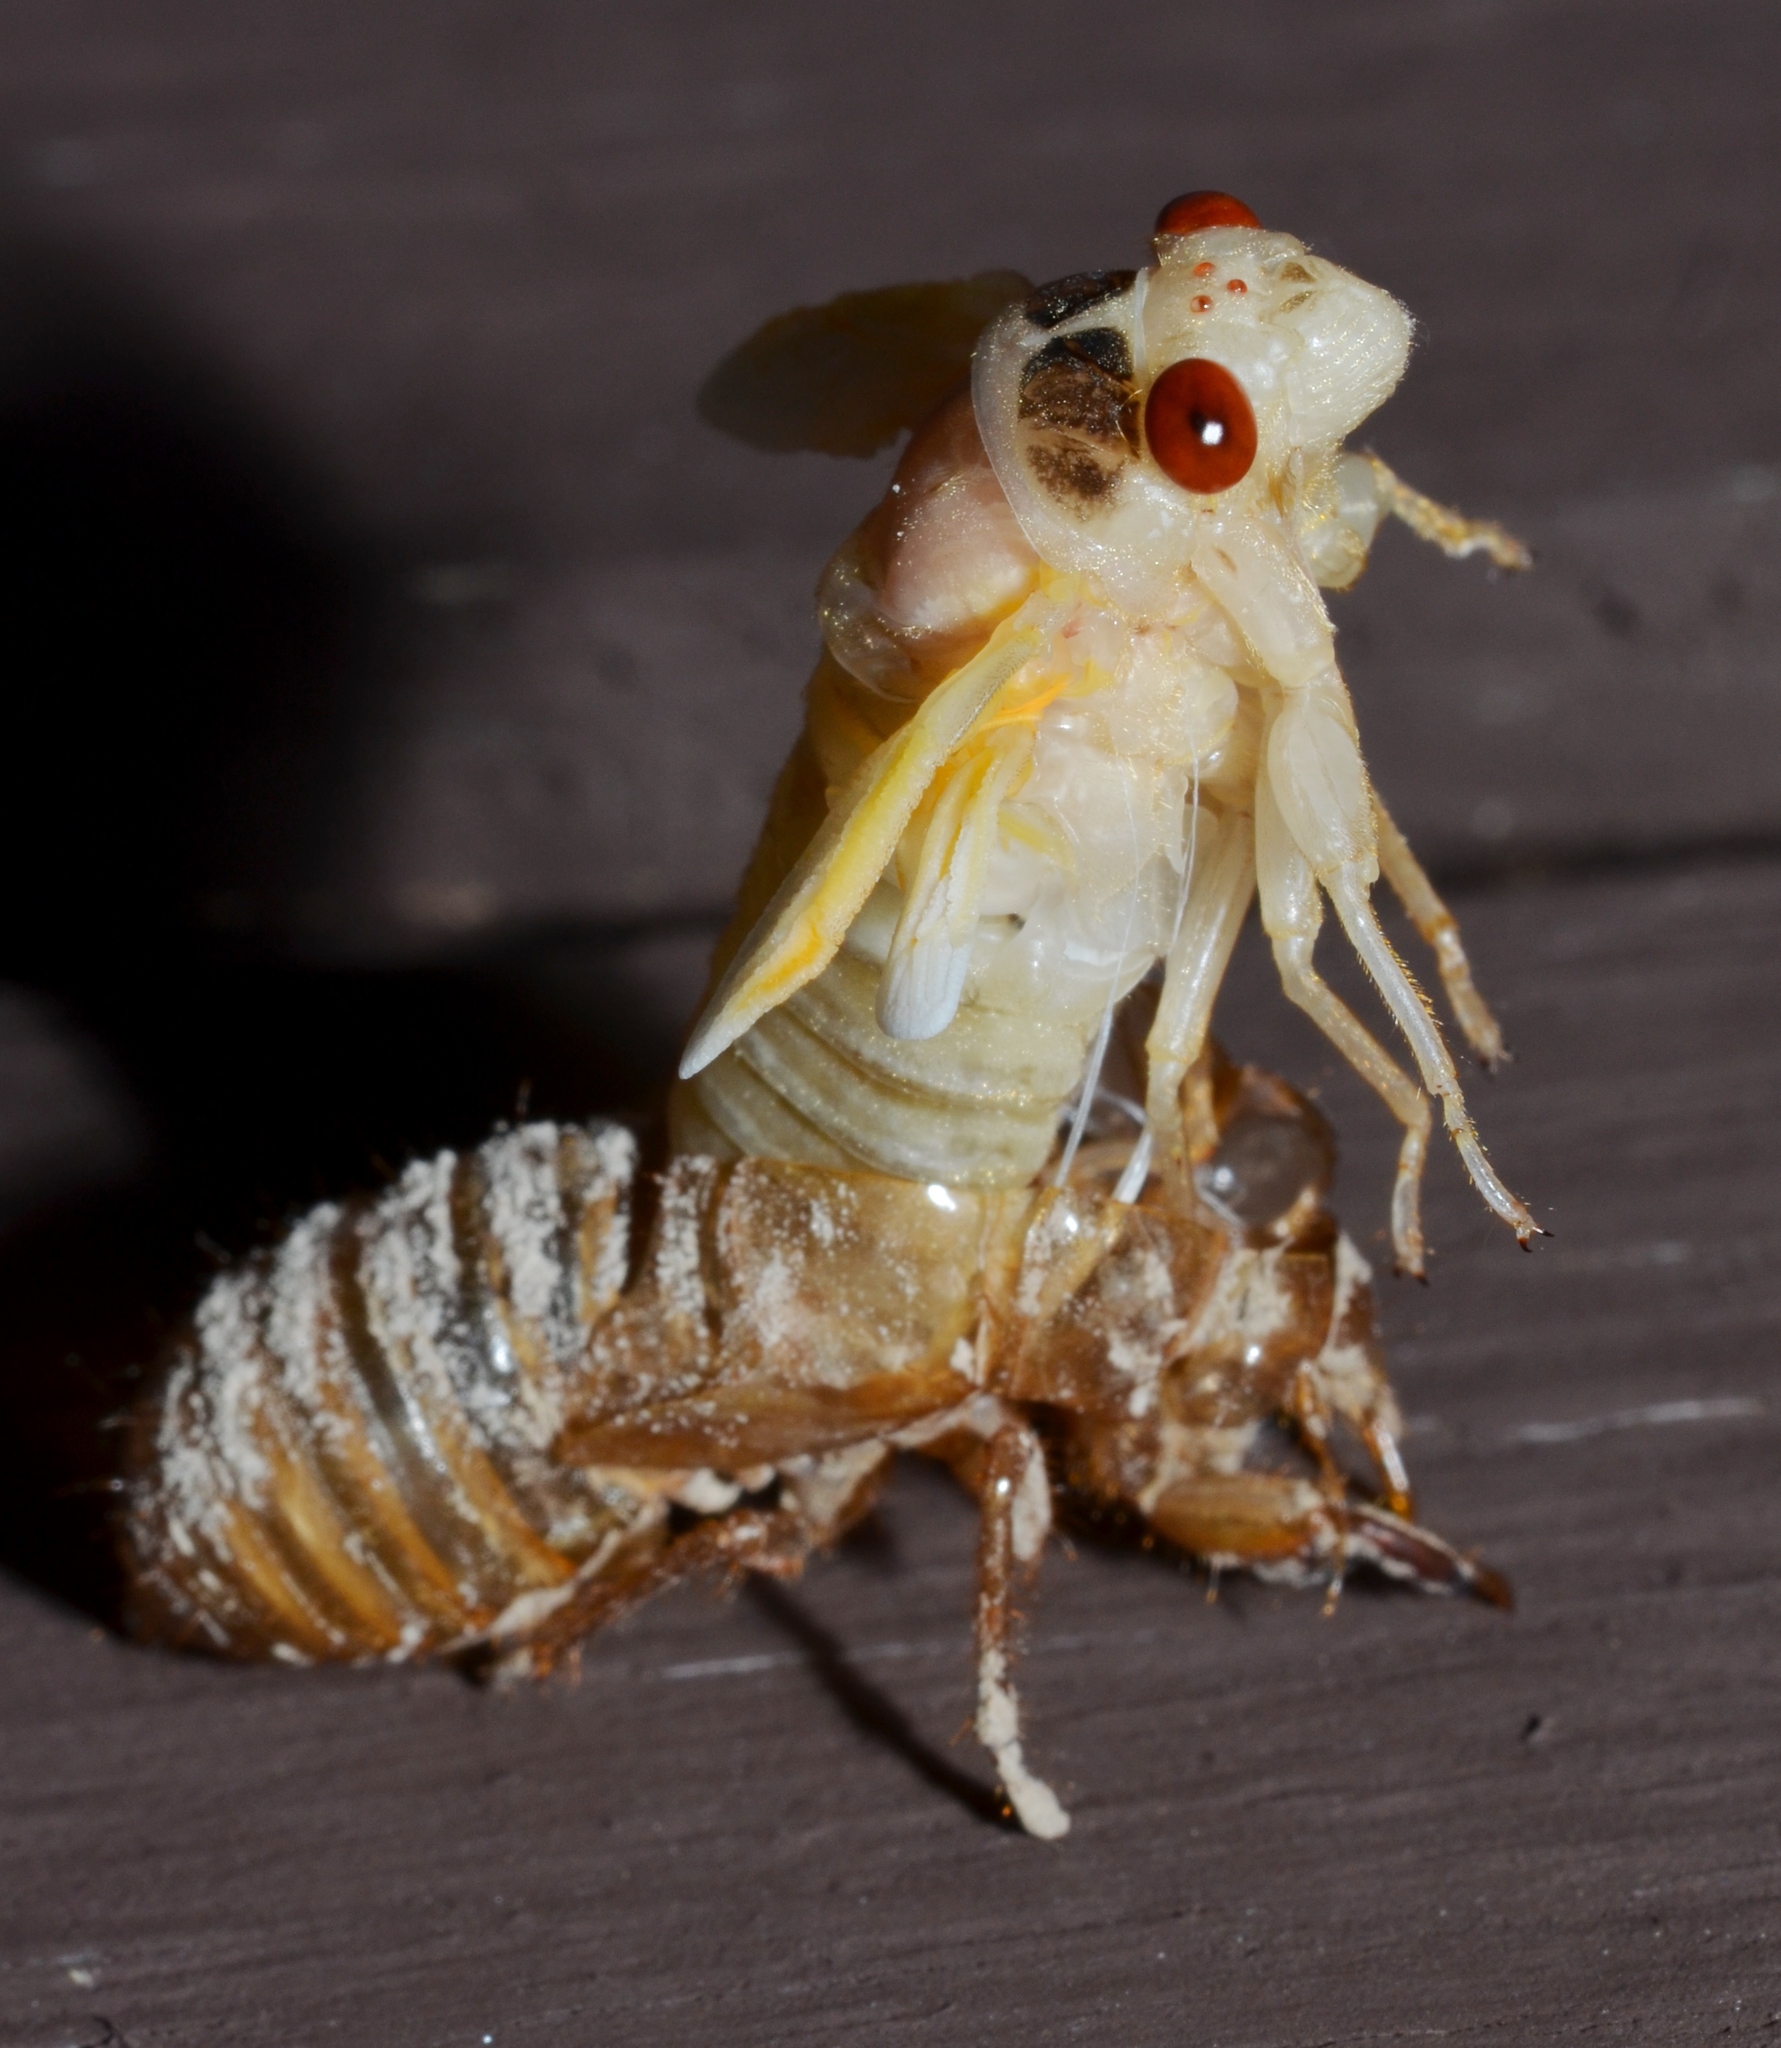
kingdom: Animalia
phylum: Arthropoda
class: Insecta
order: Hemiptera
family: Cicadidae
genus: Magicicada
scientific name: Magicicada
